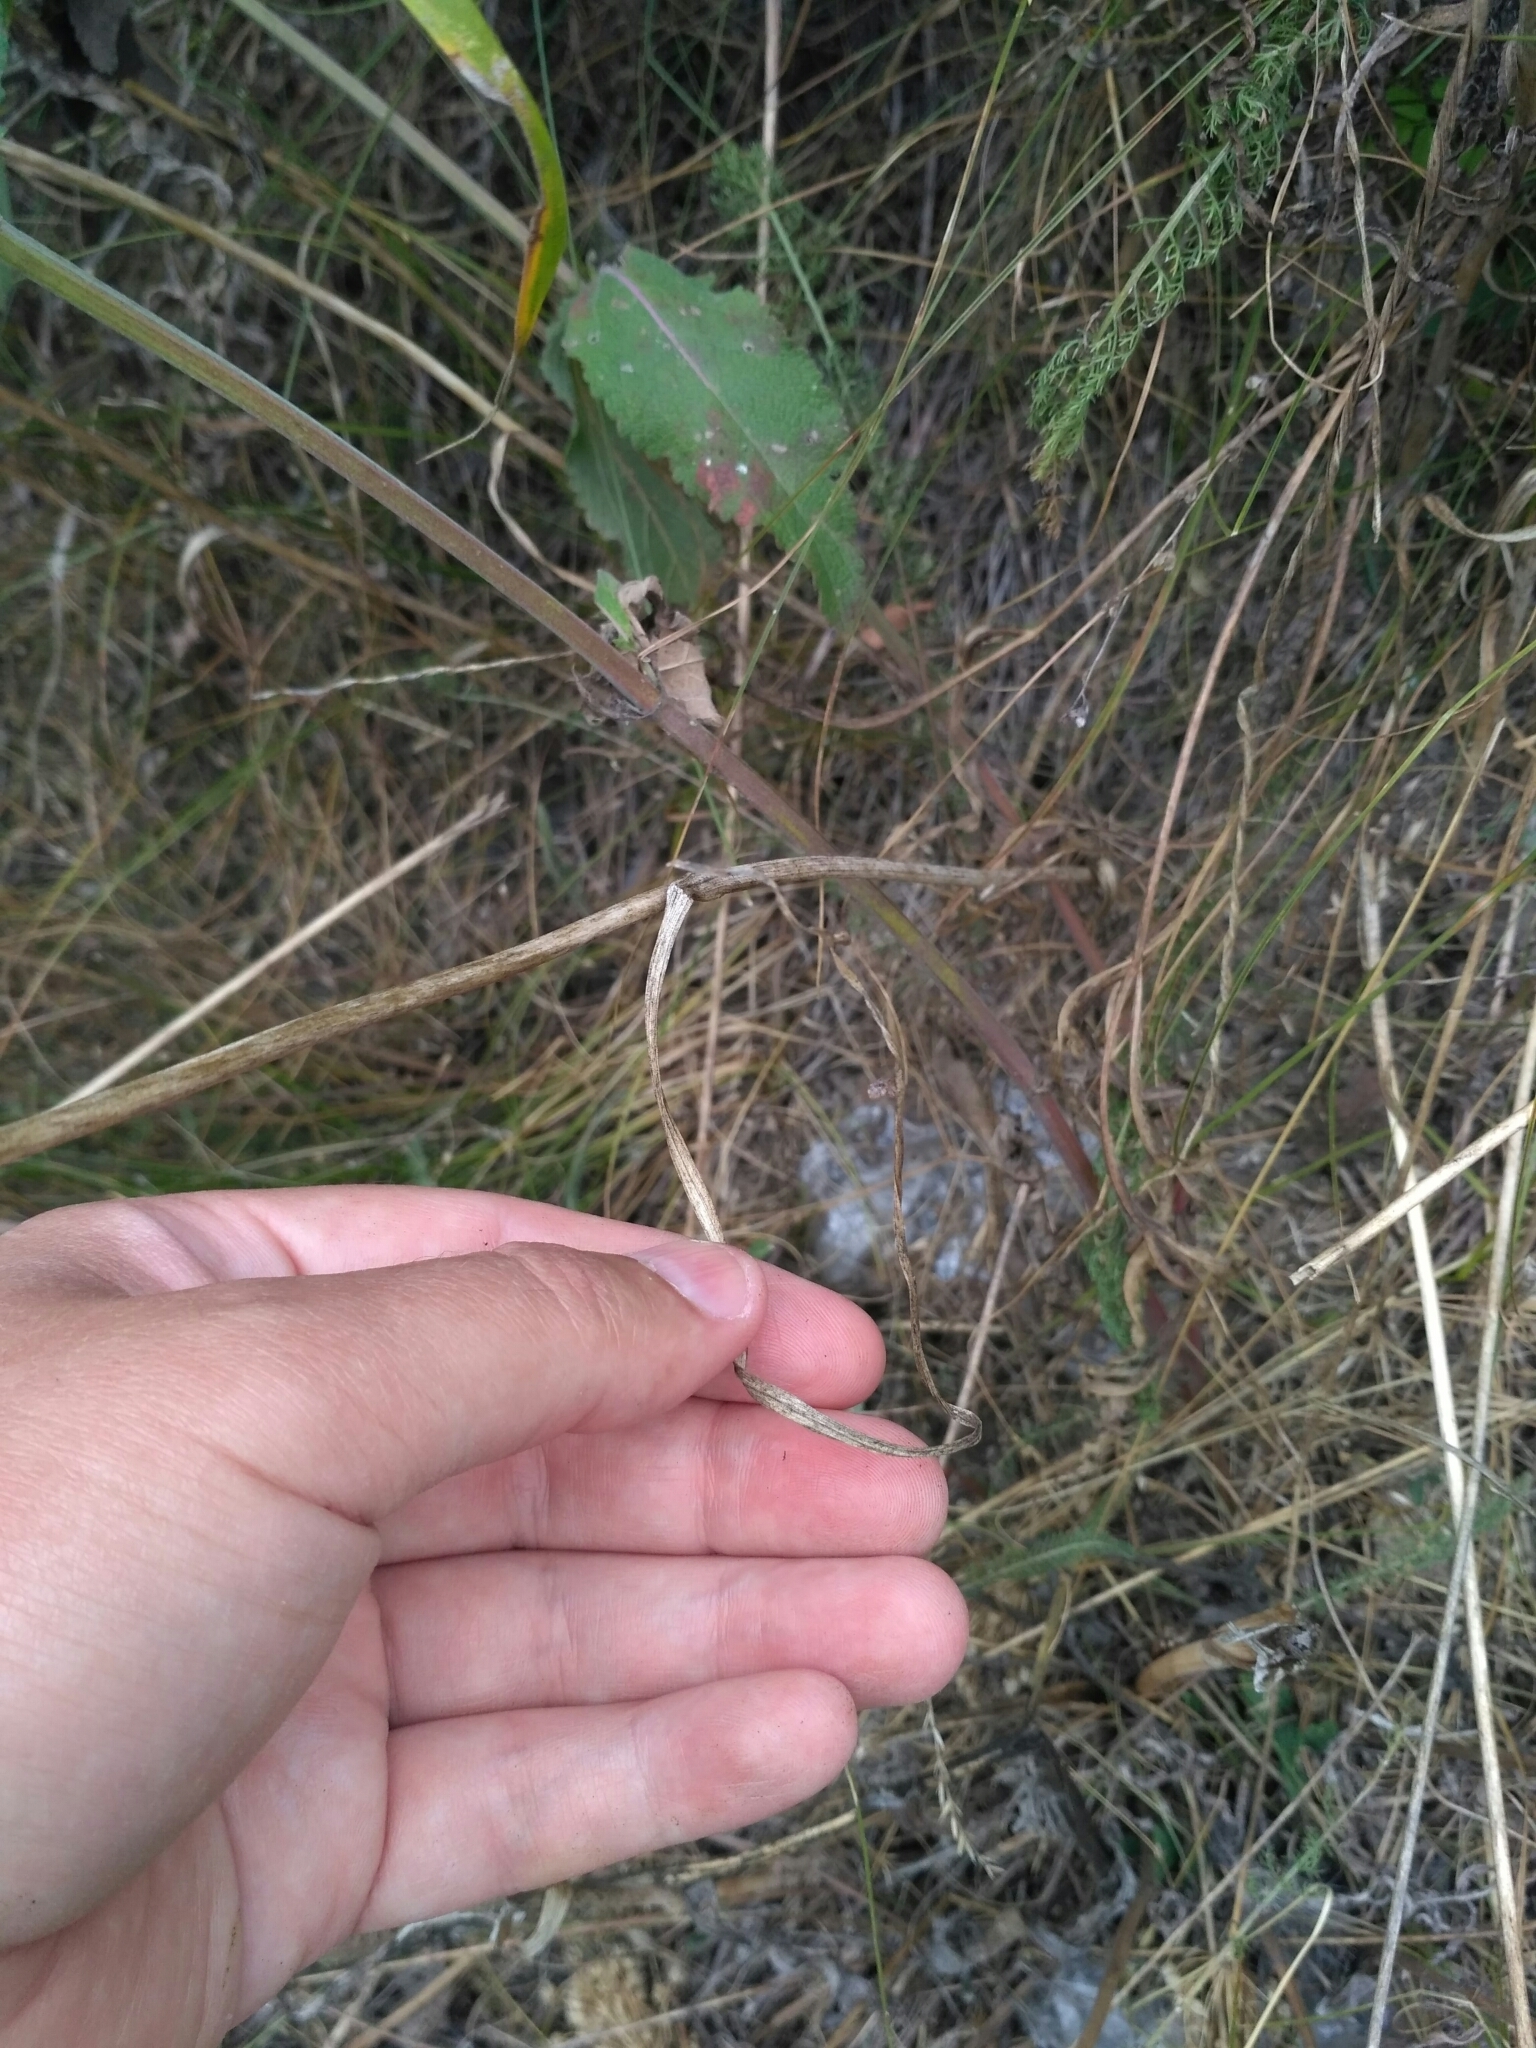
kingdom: Plantae
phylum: Tracheophyta
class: Liliopsida
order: Asparagales
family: Amaryllidaceae
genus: Allium
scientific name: Allium rotundum
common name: Sand leek
